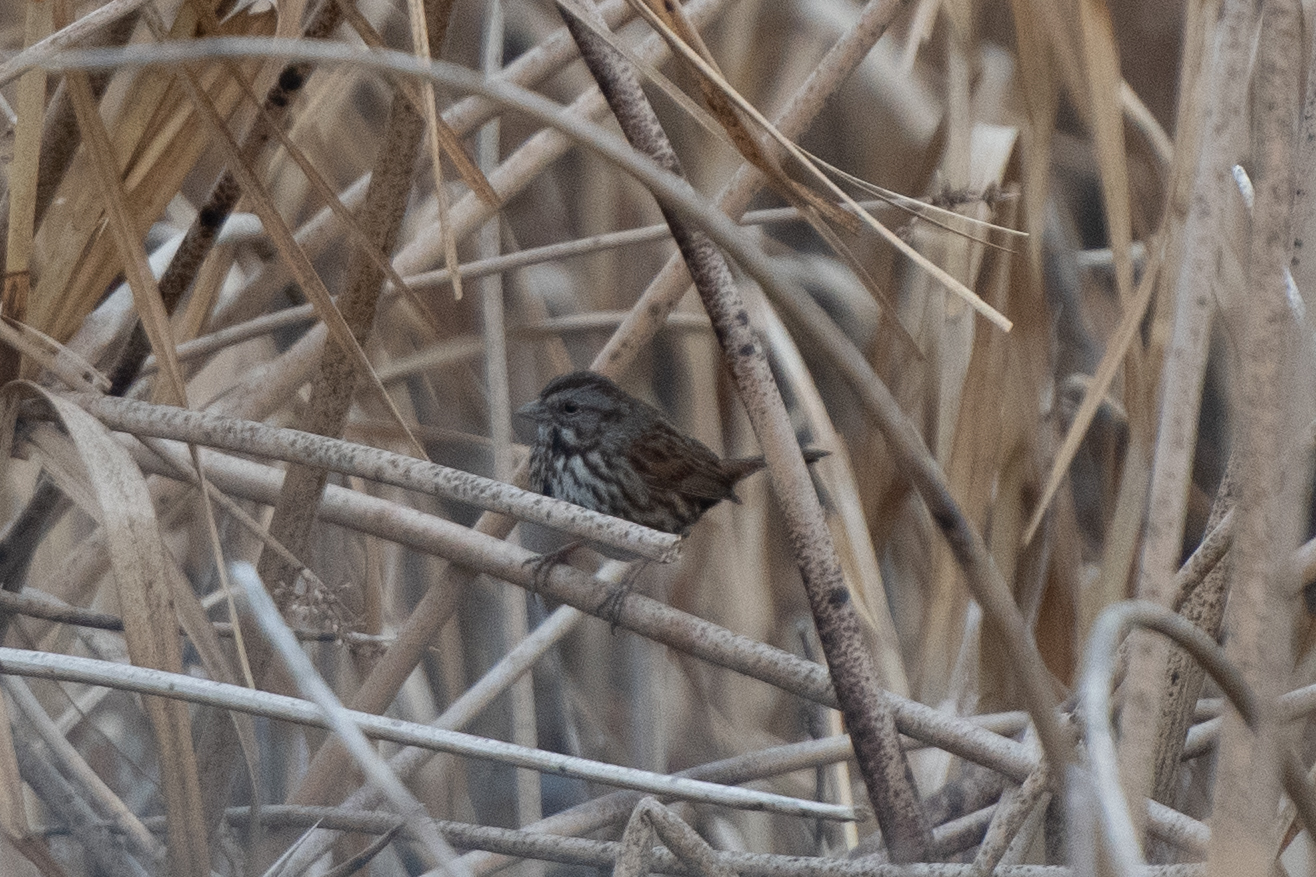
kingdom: Animalia
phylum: Chordata
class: Aves
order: Passeriformes
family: Passerellidae
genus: Melospiza
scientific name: Melospiza melodia
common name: Song sparrow
